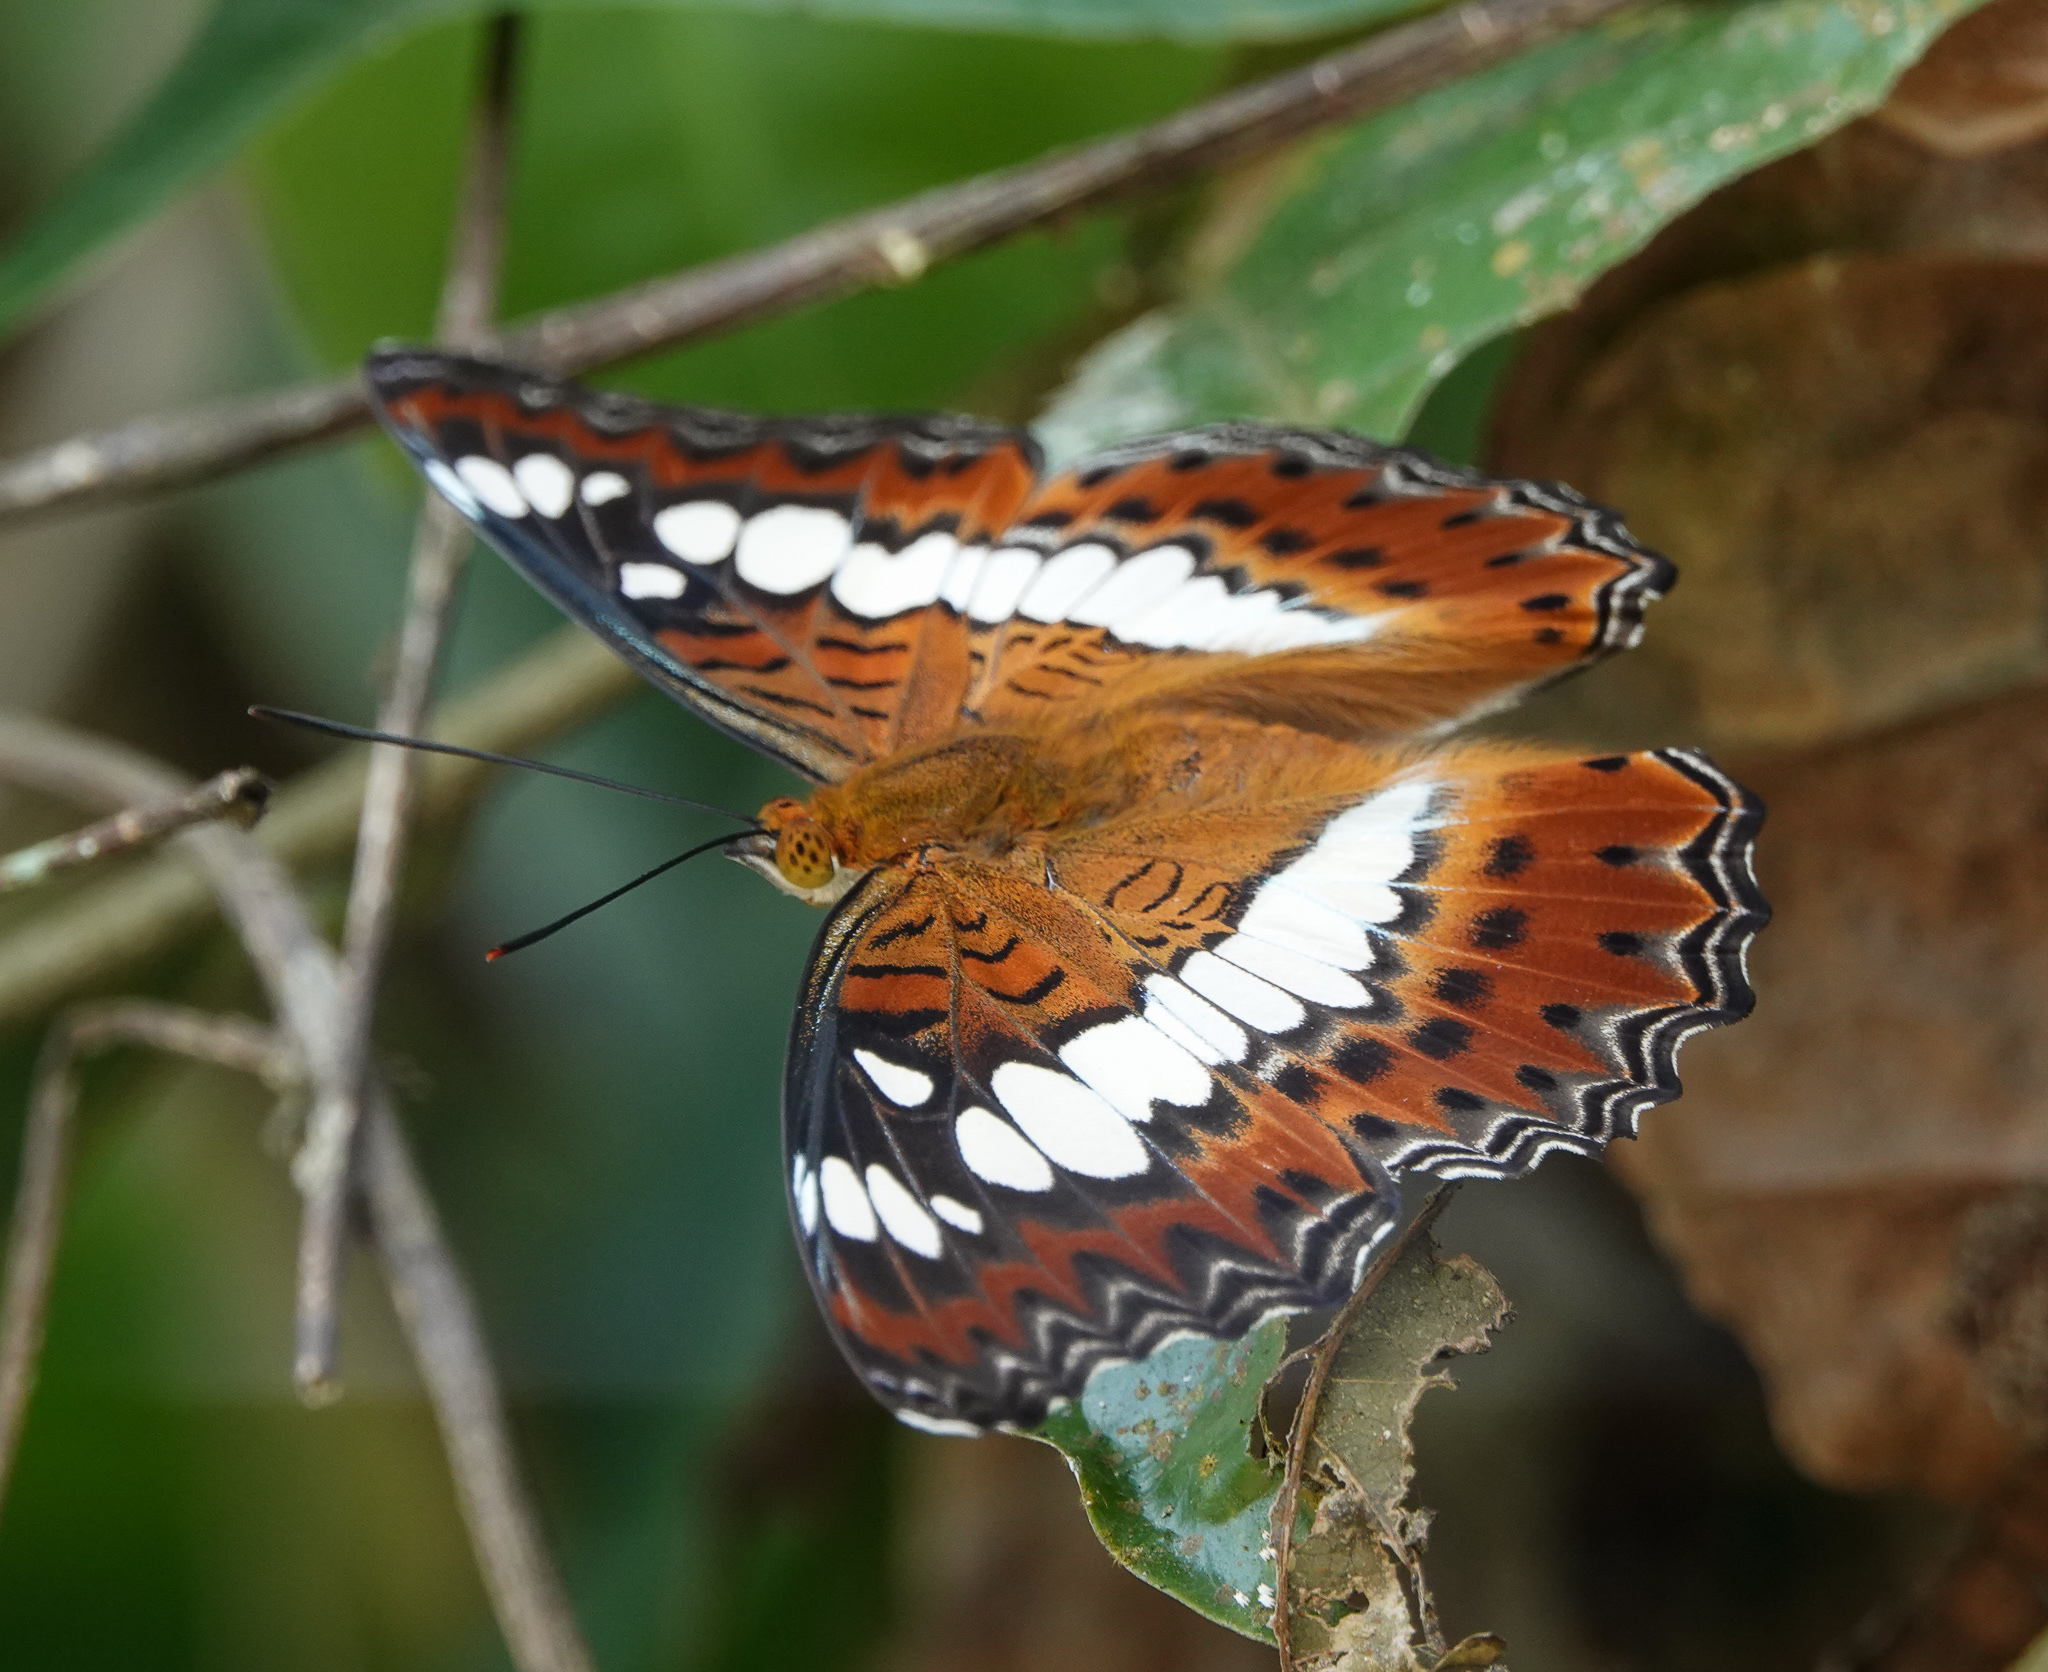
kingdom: Animalia
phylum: Arthropoda
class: Insecta
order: Lepidoptera
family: Nymphalidae
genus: Limenitis
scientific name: Limenitis Moduza procris
